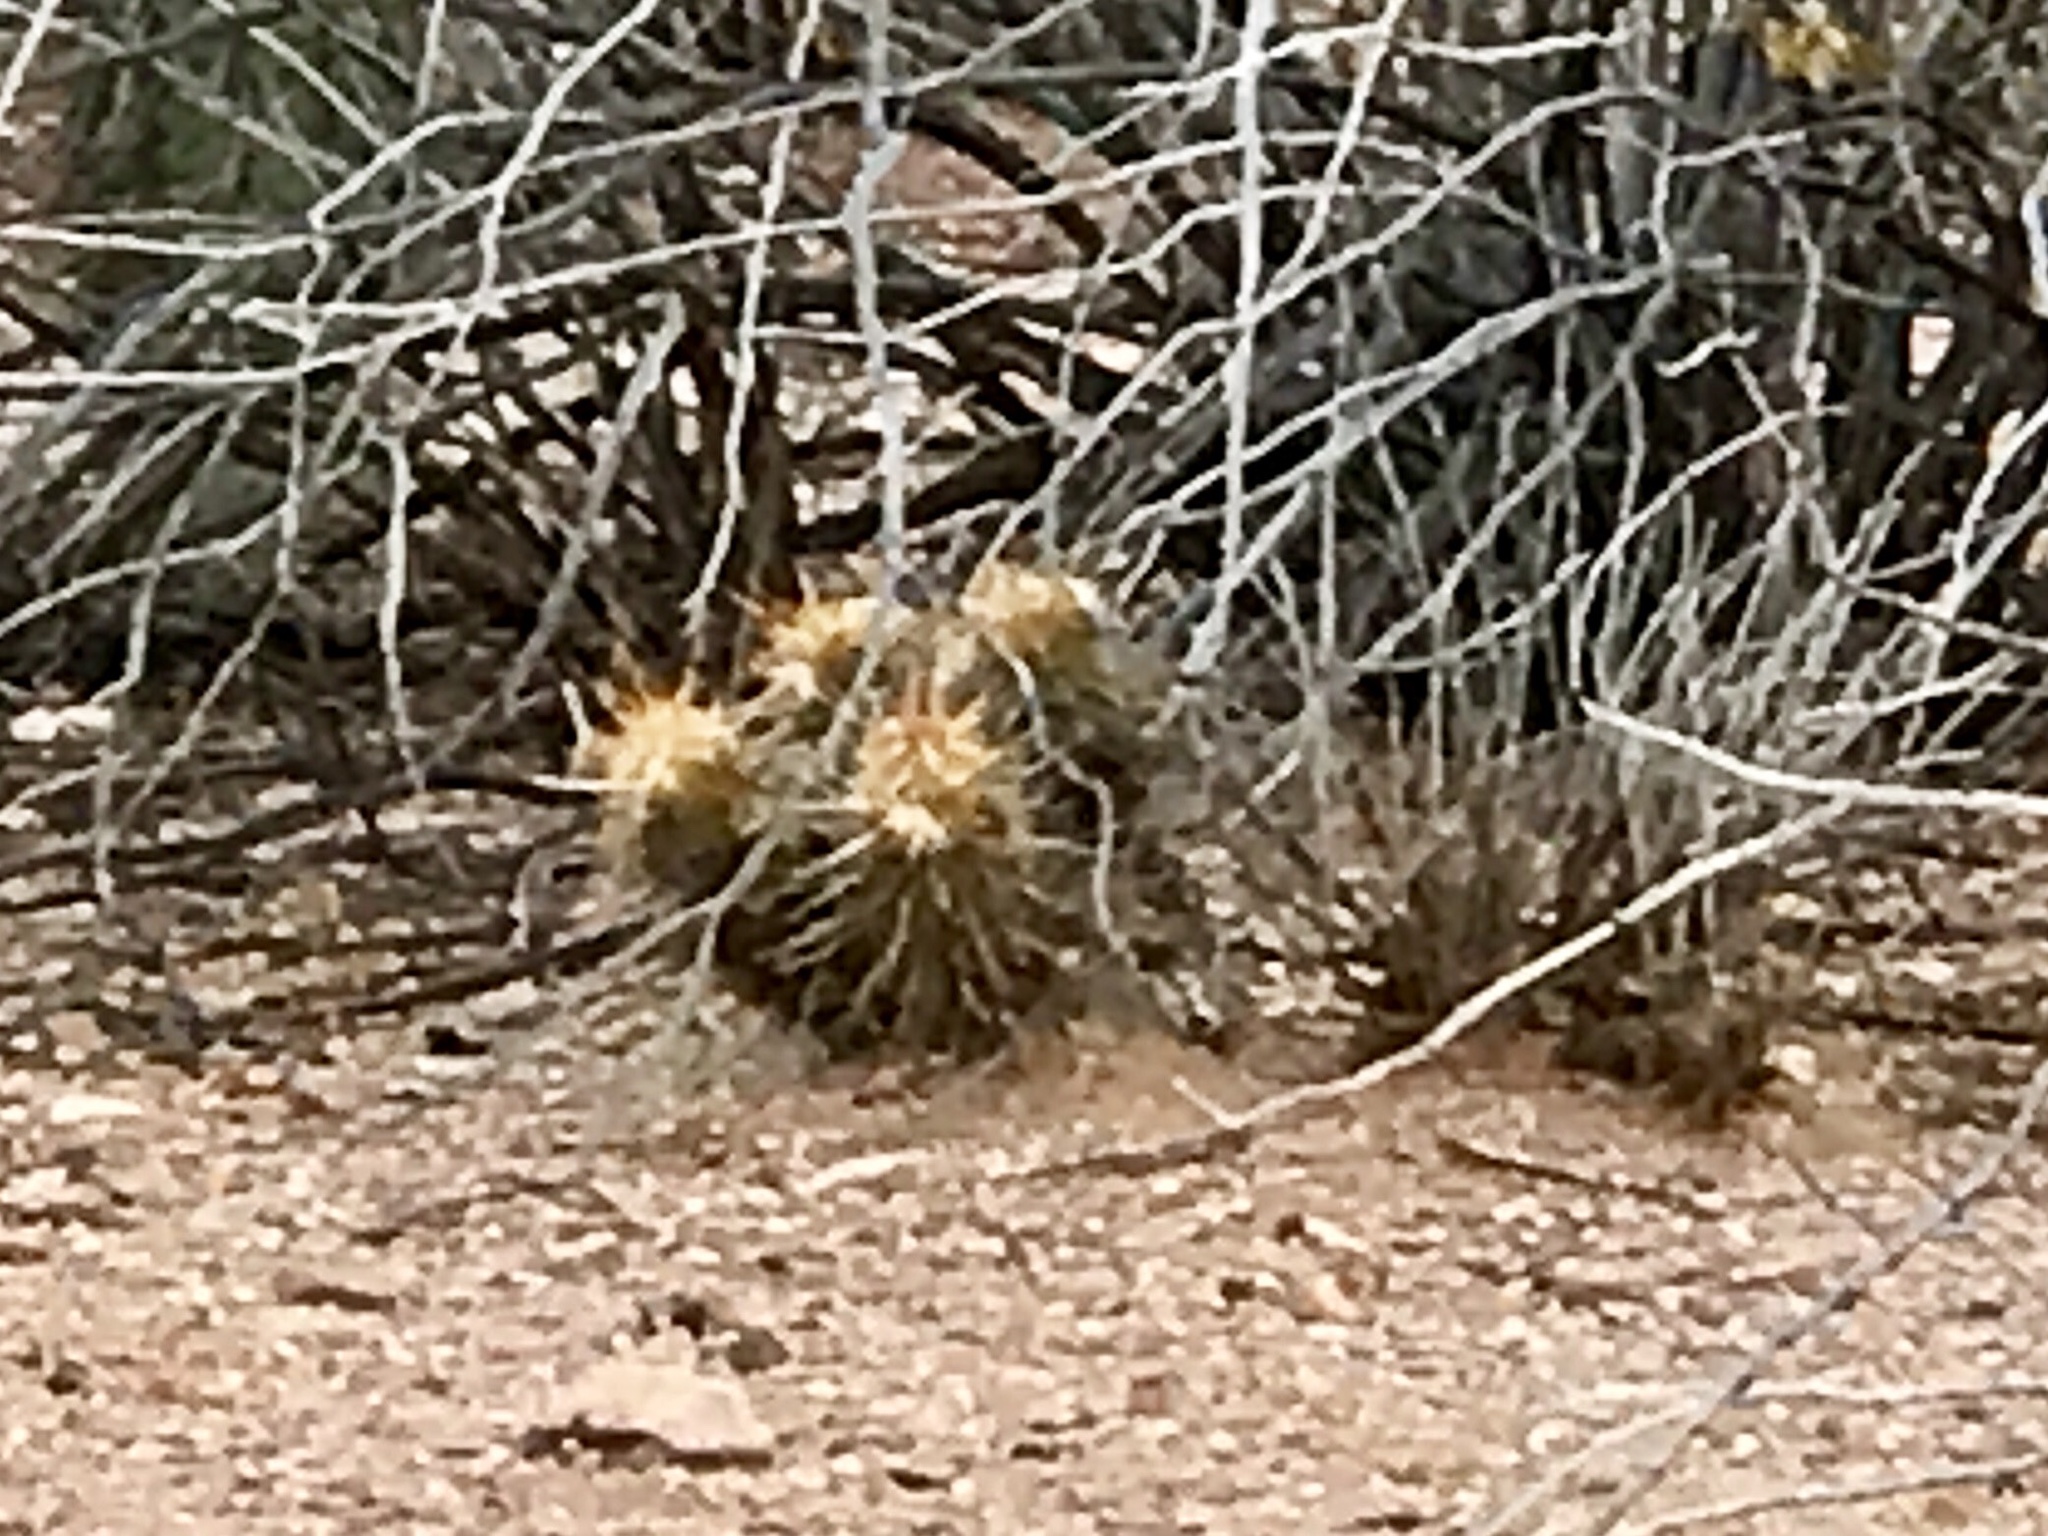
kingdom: Plantae
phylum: Tracheophyta
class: Magnoliopsida
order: Caryophyllales
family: Cactaceae
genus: Echinocereus
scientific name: Echinocereus engelmannii
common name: Engelmann's hedgehog cactus
